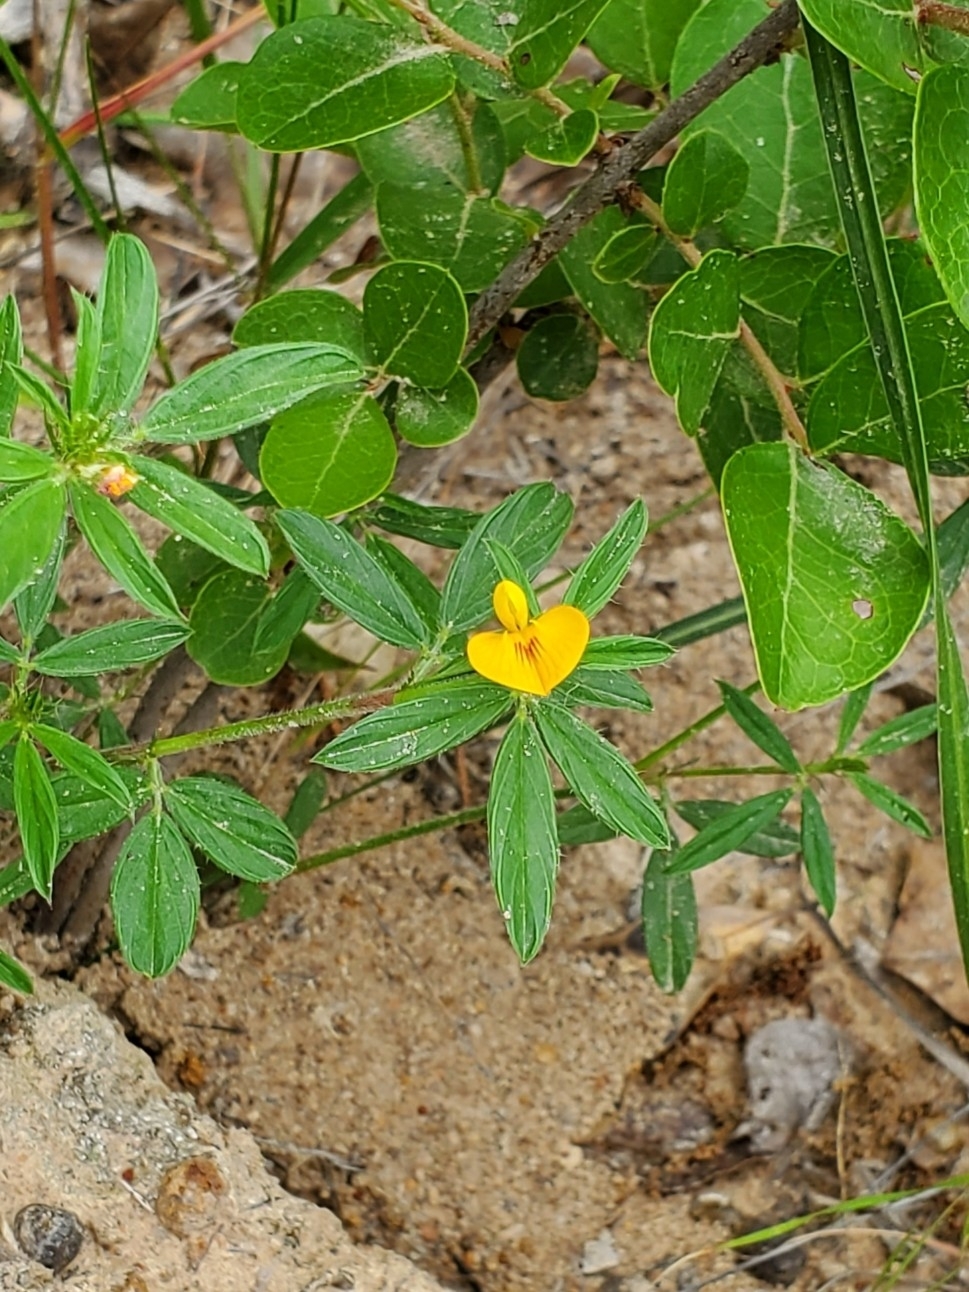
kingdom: Plantae
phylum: Tracheophyta
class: Magnoliopsida
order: Fabales
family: Fabaceae
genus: Stylosanthes
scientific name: Stylosanthes biflora
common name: Two-flower pencil-flower
